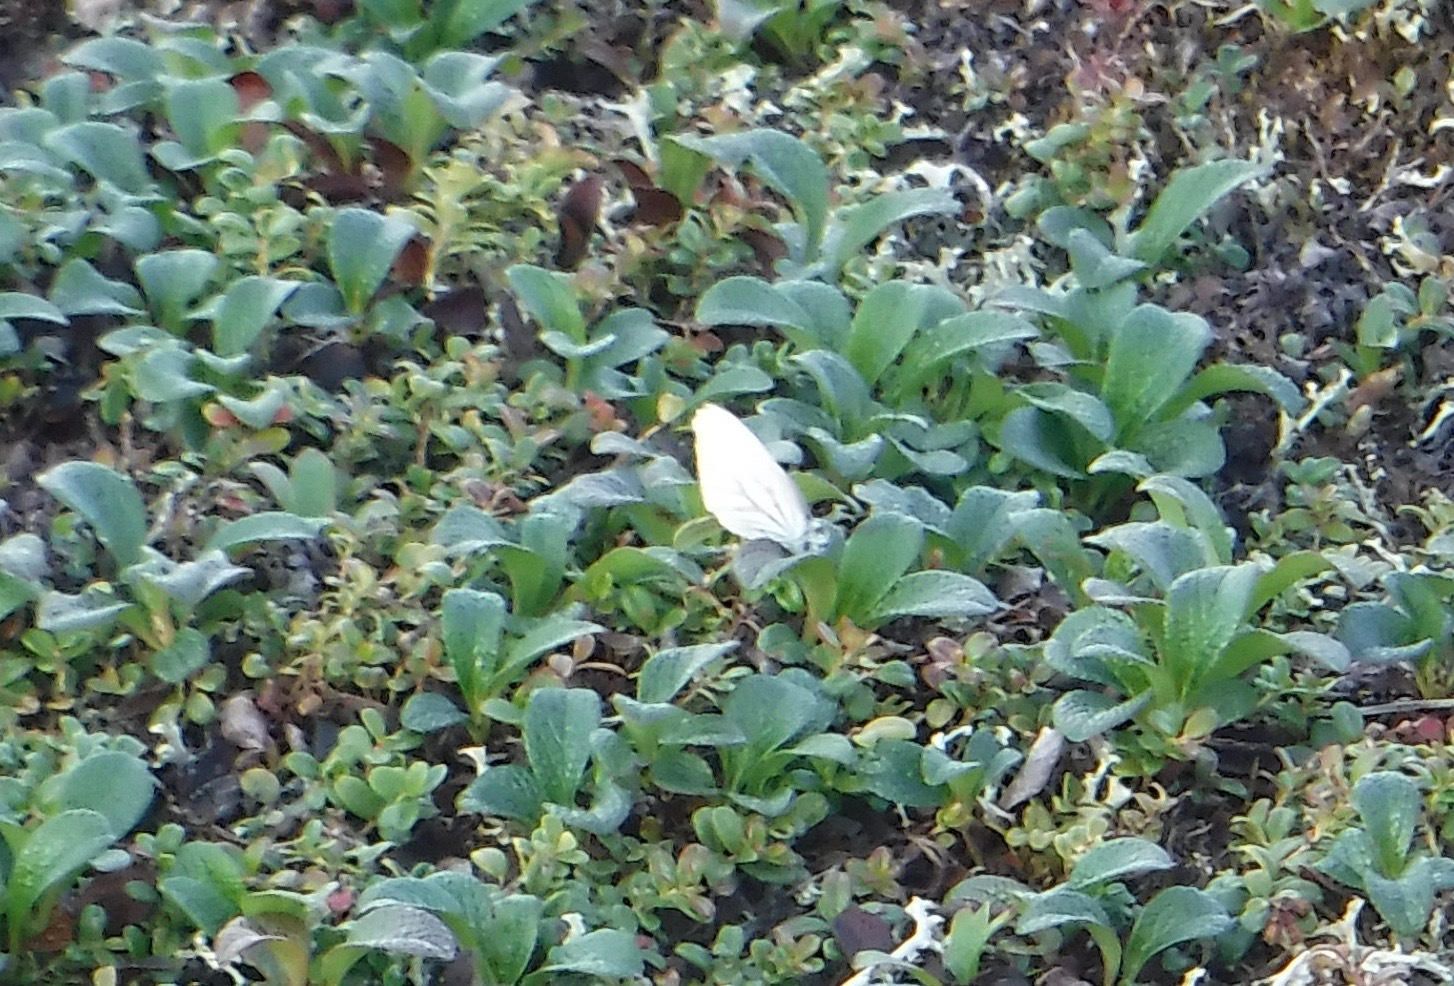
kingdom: Animalia
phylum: Arthropoda
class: Insecta
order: Lepidoptera
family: Pieridae
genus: Pieris
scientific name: Pieris oleracea
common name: Mustard white
